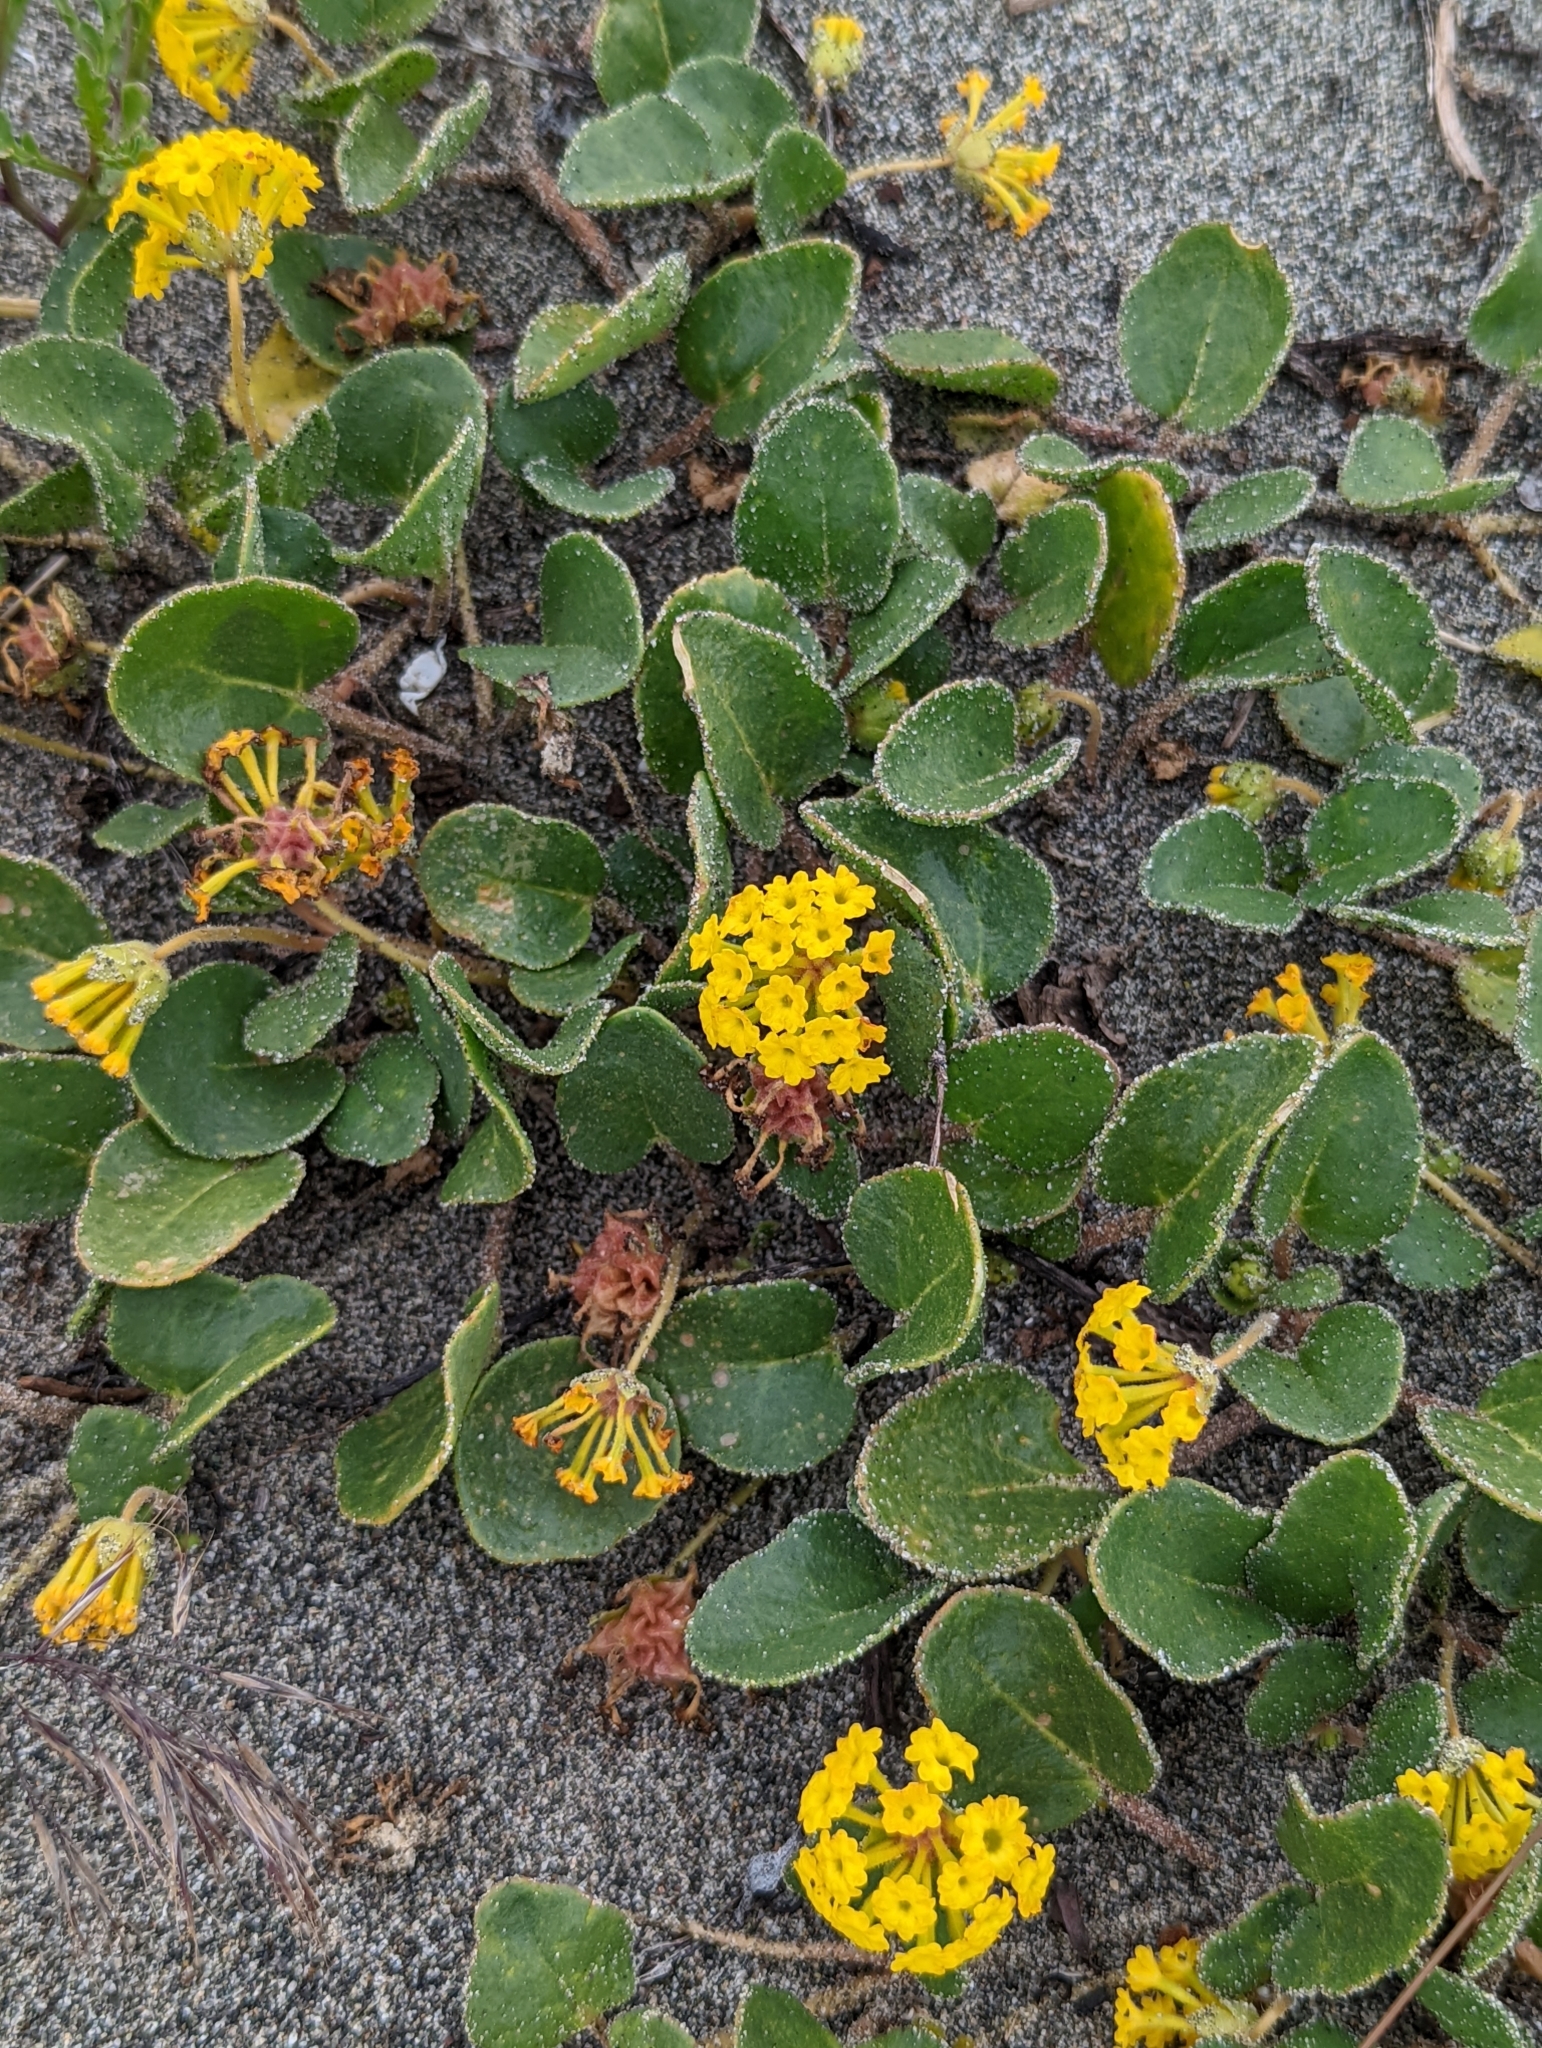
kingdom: Plantae
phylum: Tracheophyta
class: Magnoliopsida
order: Caryophyllales
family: Nyctaginaceae
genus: Abronia
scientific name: Abronia latifolia
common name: Yellow sand-verbena
